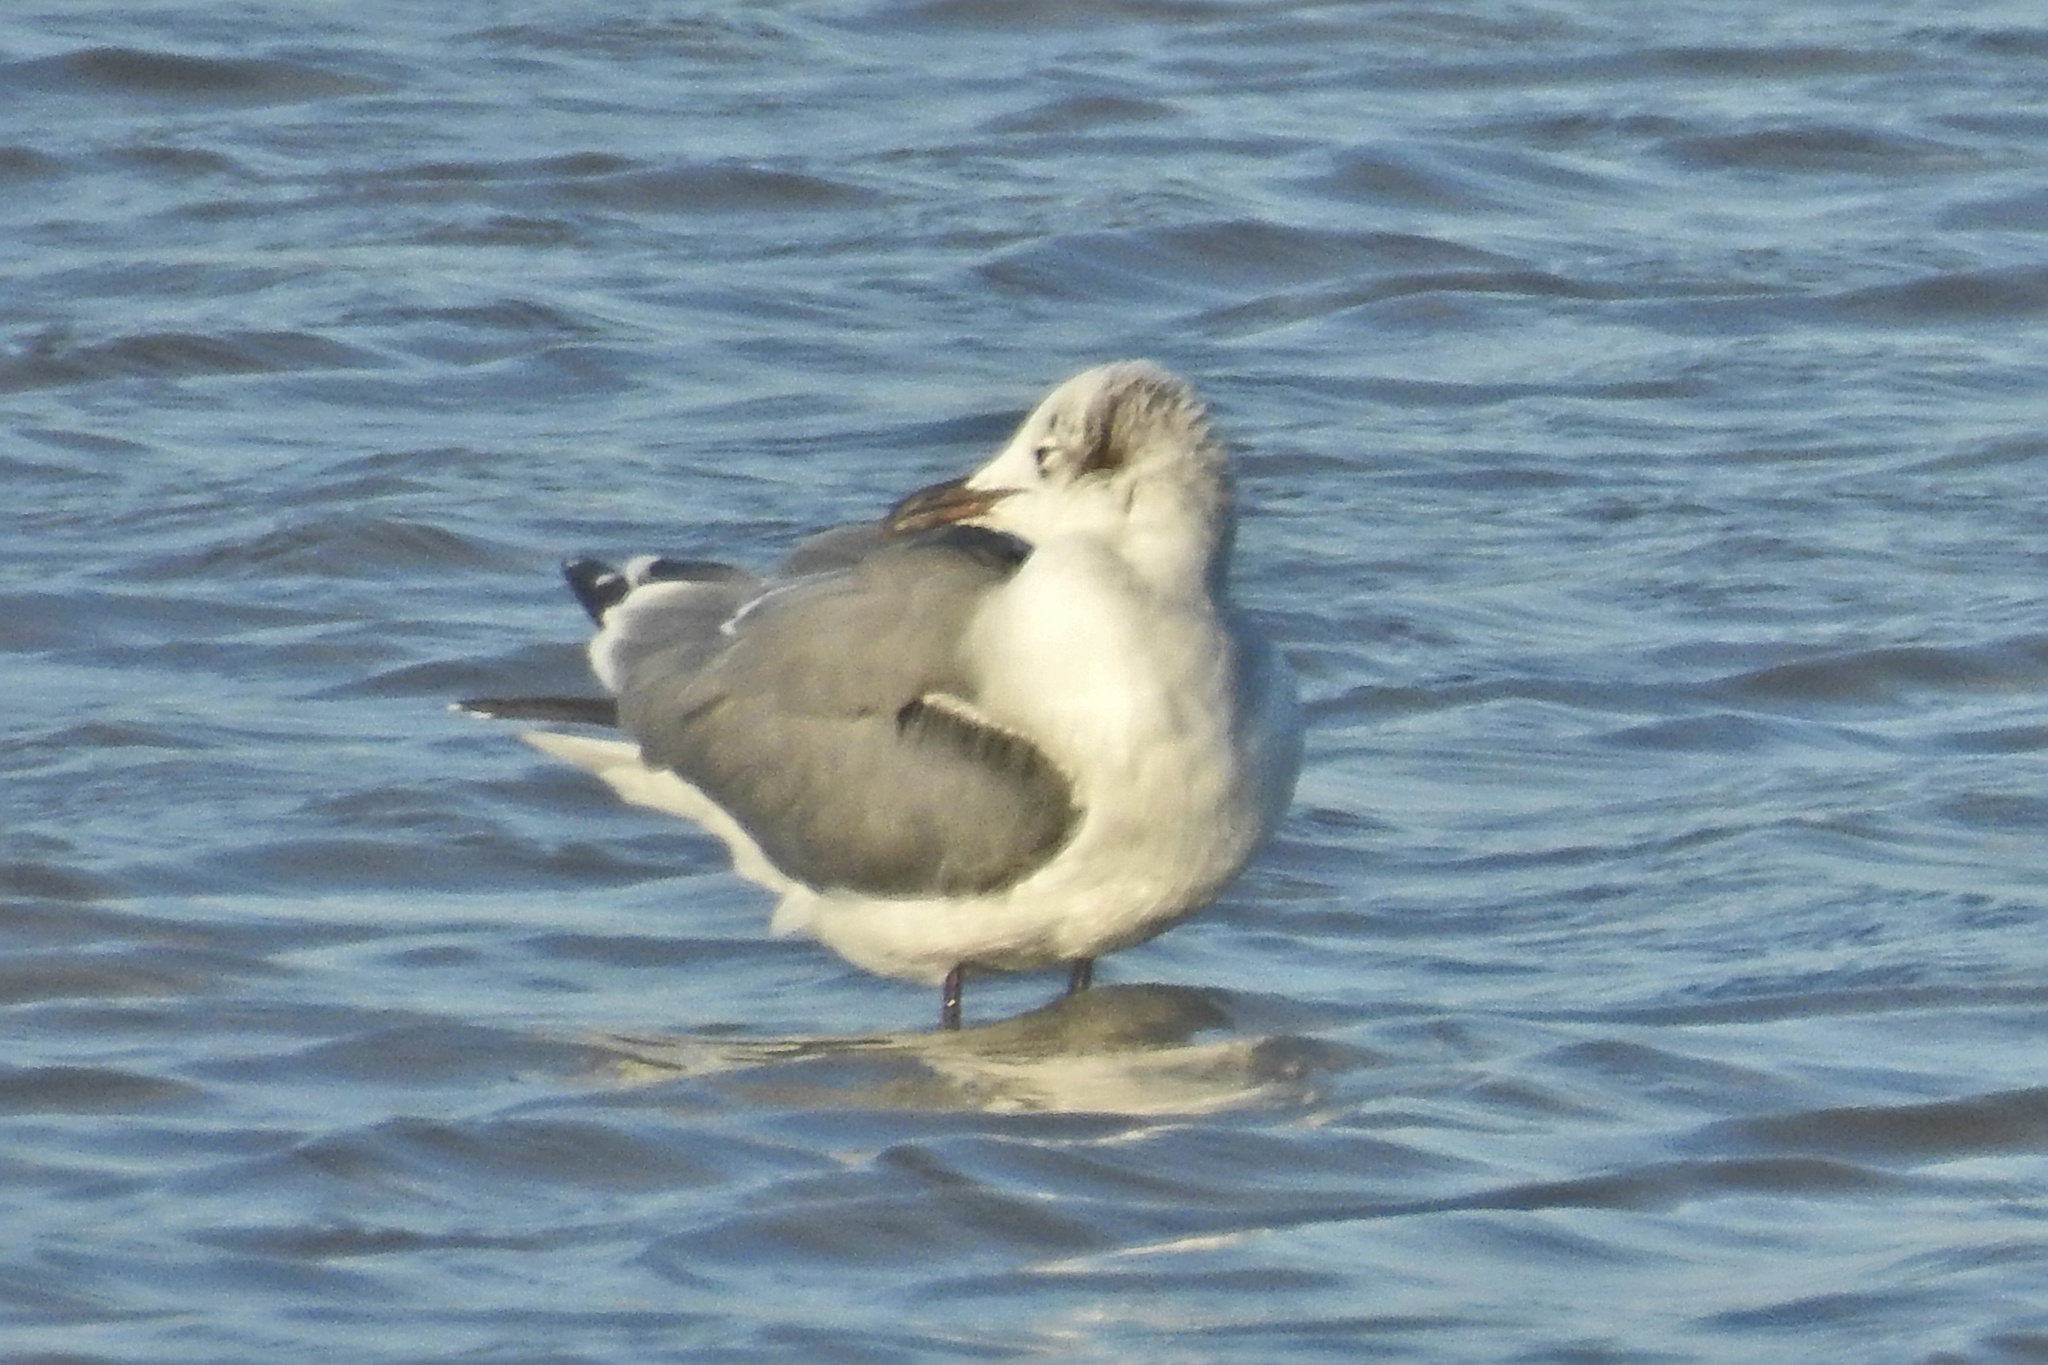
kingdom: Animalia
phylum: Chordata
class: Aves
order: Charadriiformes
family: Laridae
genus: Leucophaeus
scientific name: Leucophaeus atricilla
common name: Laughing gull
